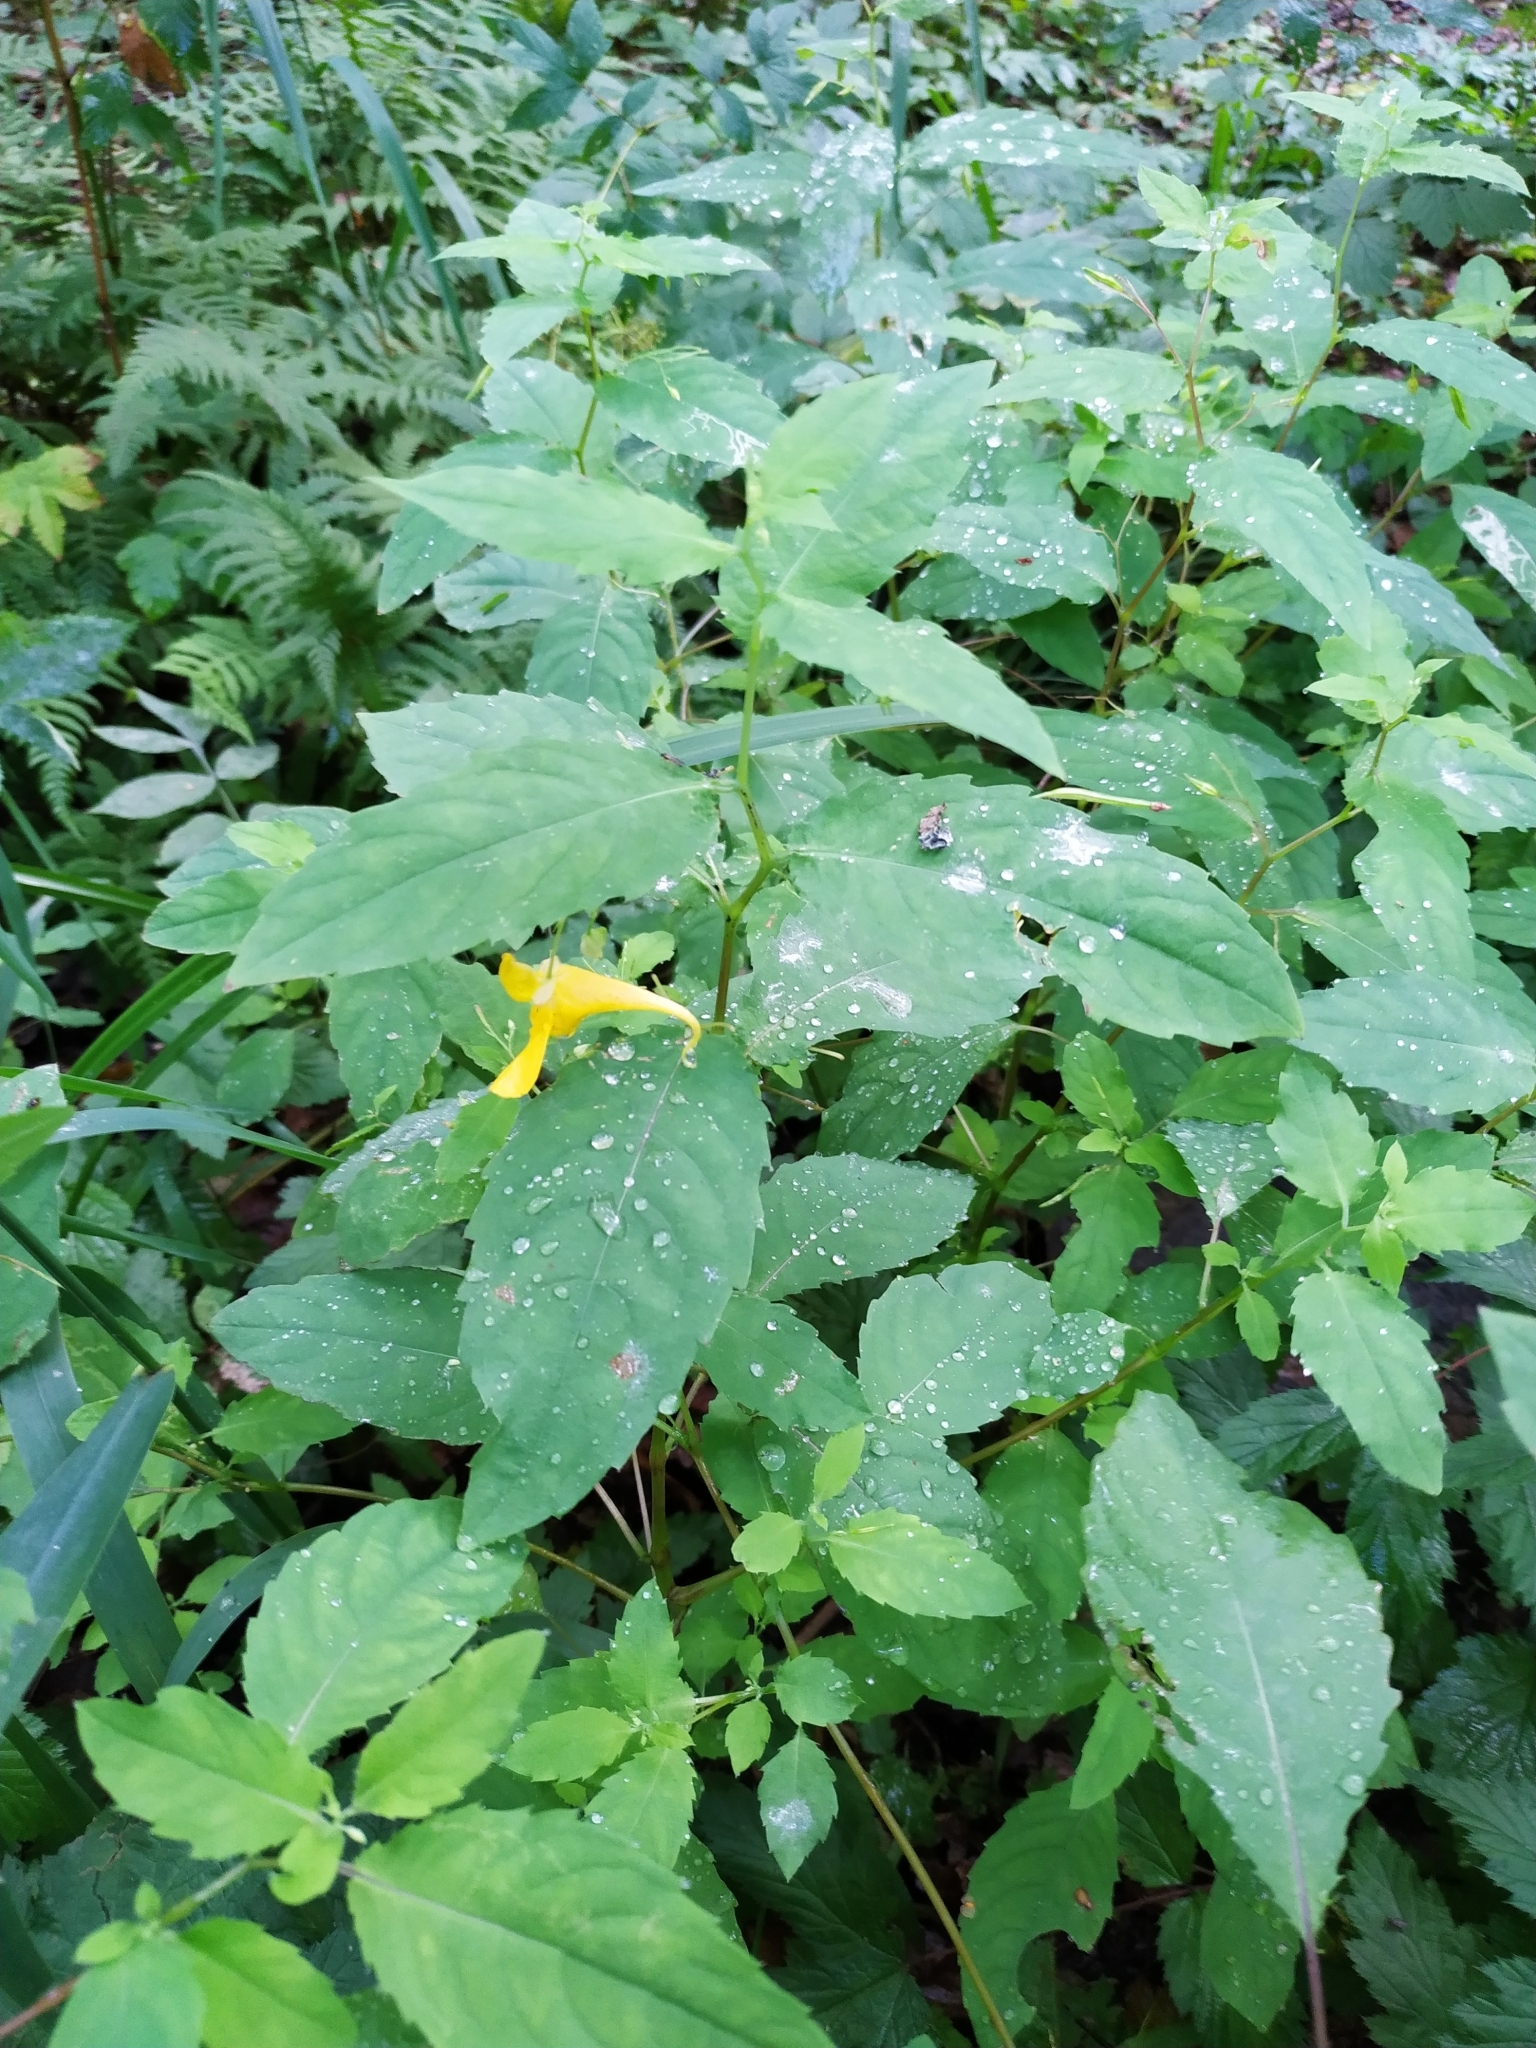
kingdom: Plantae
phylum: Tracheophyta
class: Magnoliopsida
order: Ericales
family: Balsaminaceae
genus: Impatiens
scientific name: Impatiens noli-tangere
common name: Touch-me-not balsam
